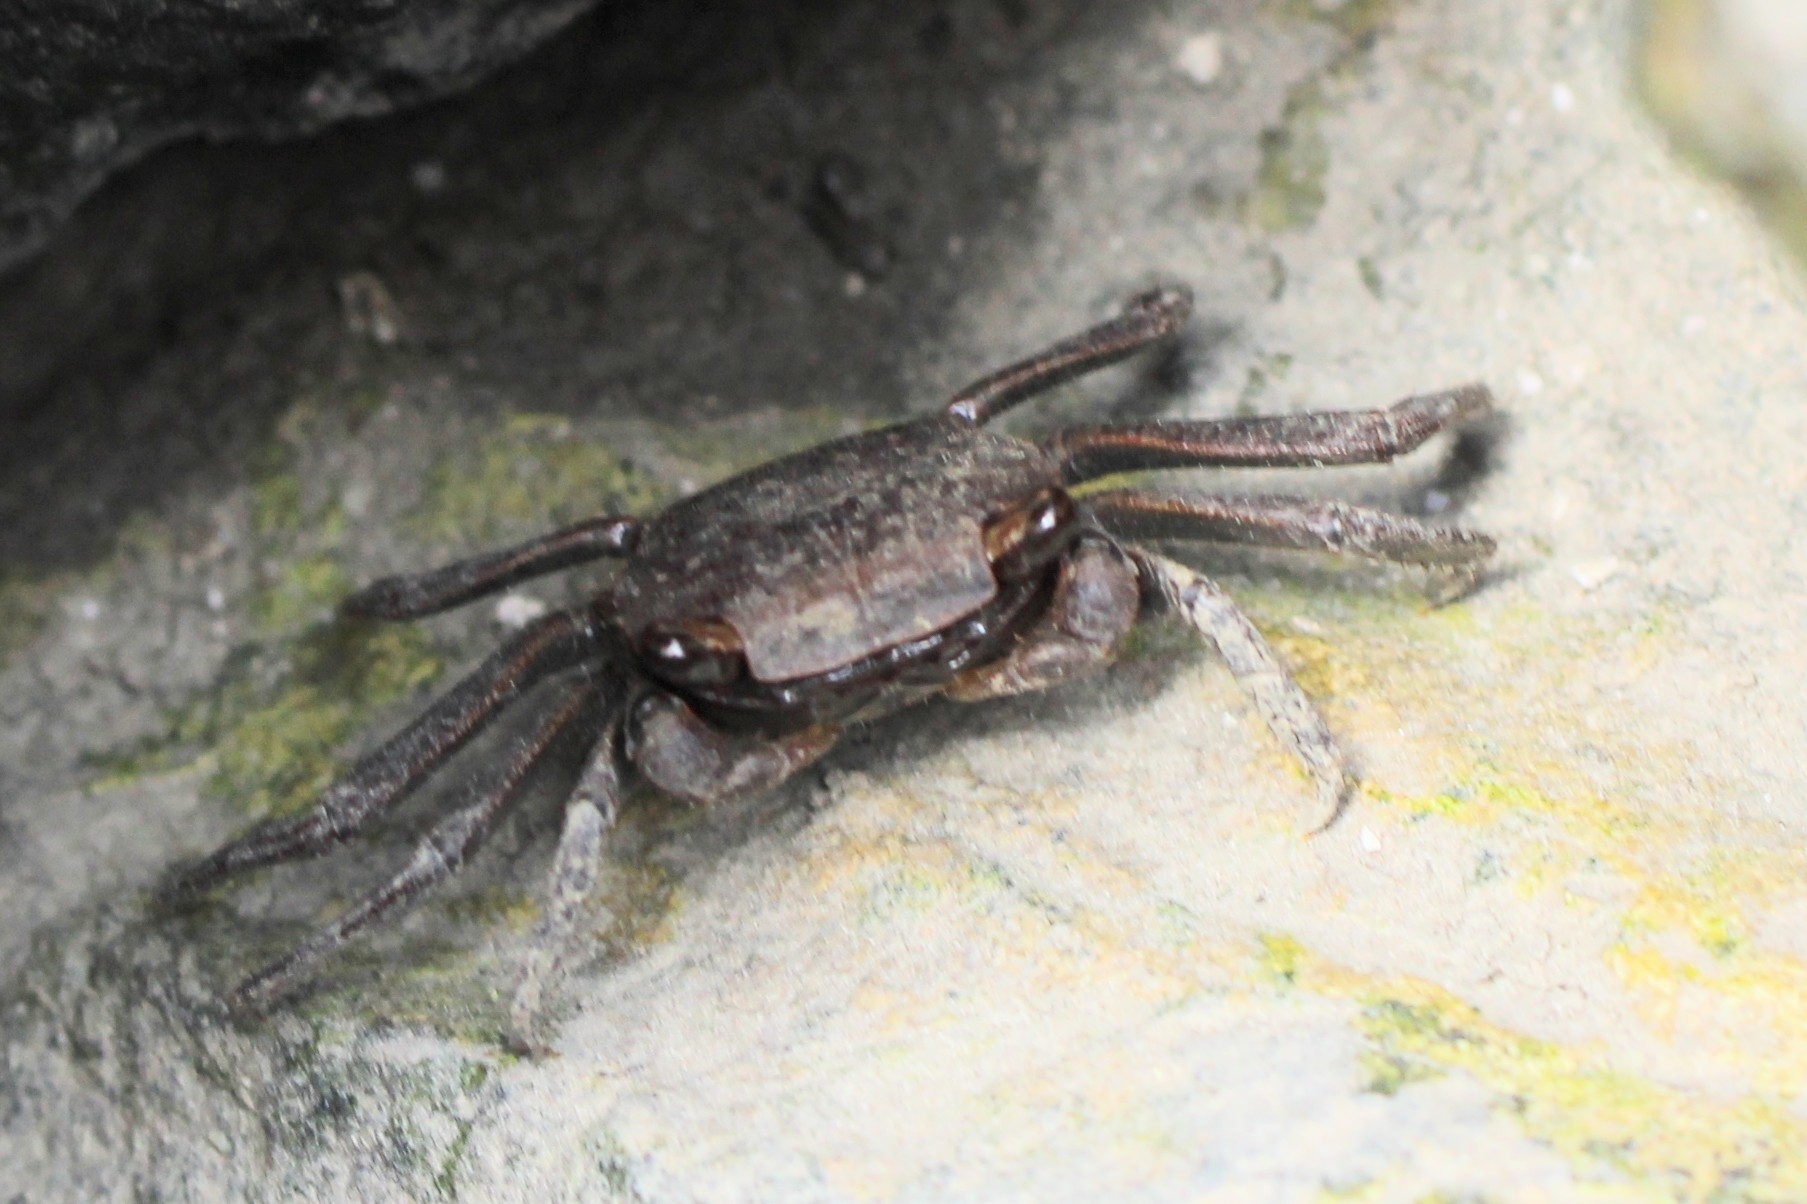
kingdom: Animalia
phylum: Arthropoda
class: Malacostraca
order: Decapoda
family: Sesarmidae
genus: Armases
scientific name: Armases cinereum
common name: Squareback marsh crab
